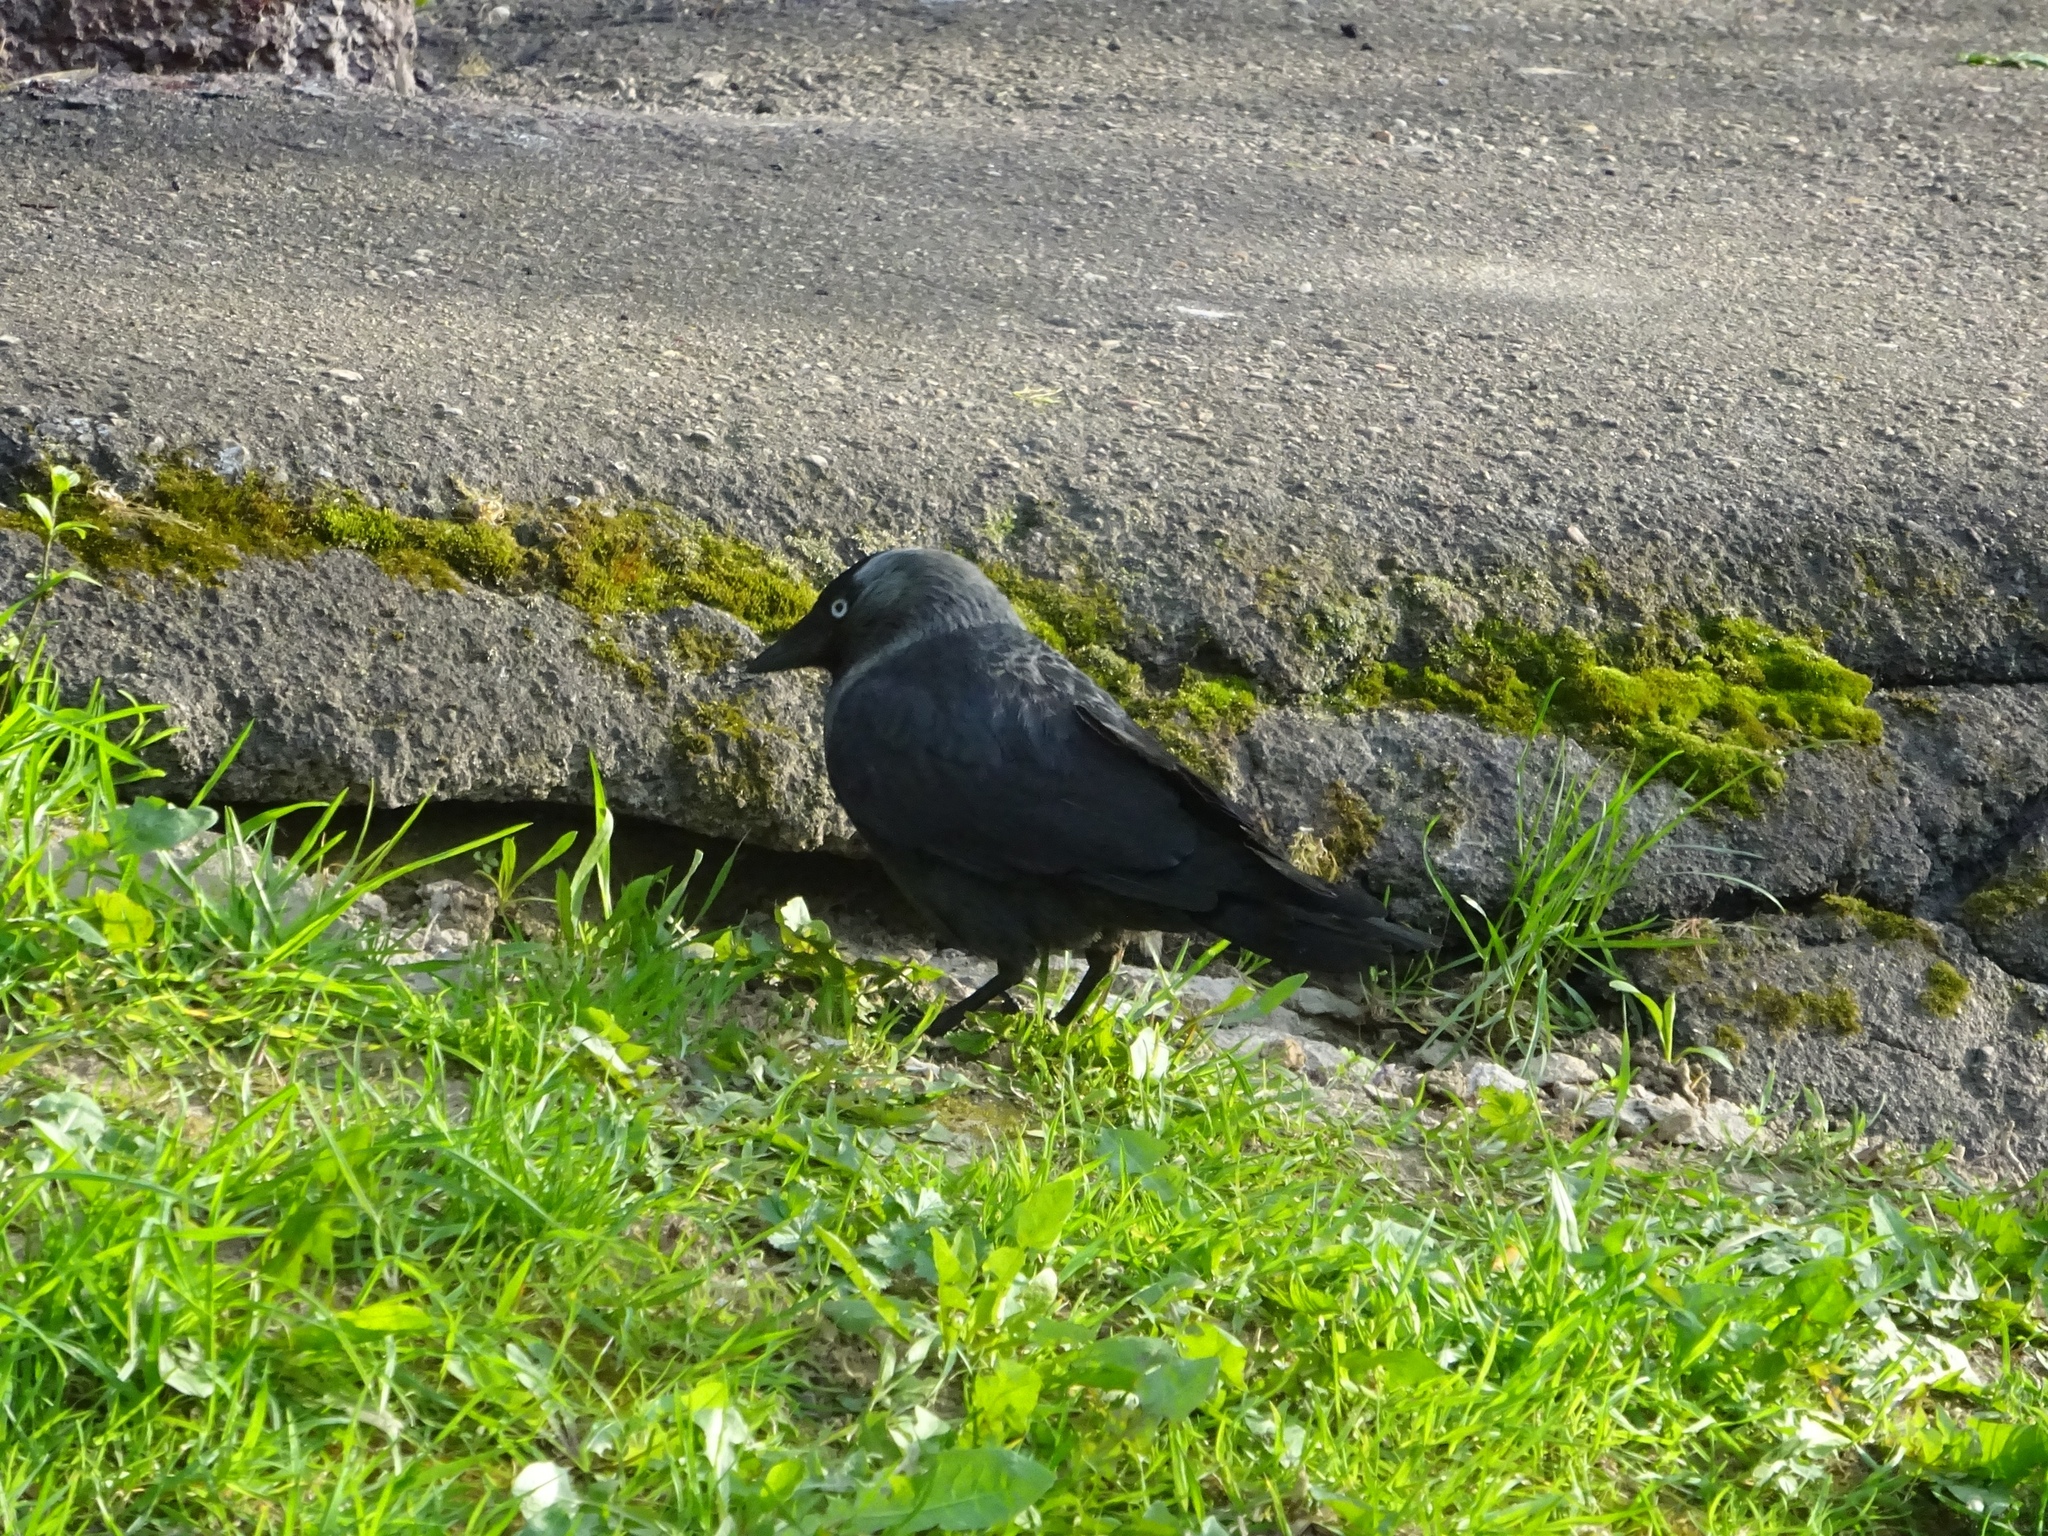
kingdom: Animalia
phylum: Chordata
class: Aves
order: Passeriformes
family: Corvidae
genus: Coloeus
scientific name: Coloeus monedula
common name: Western jackdaw
